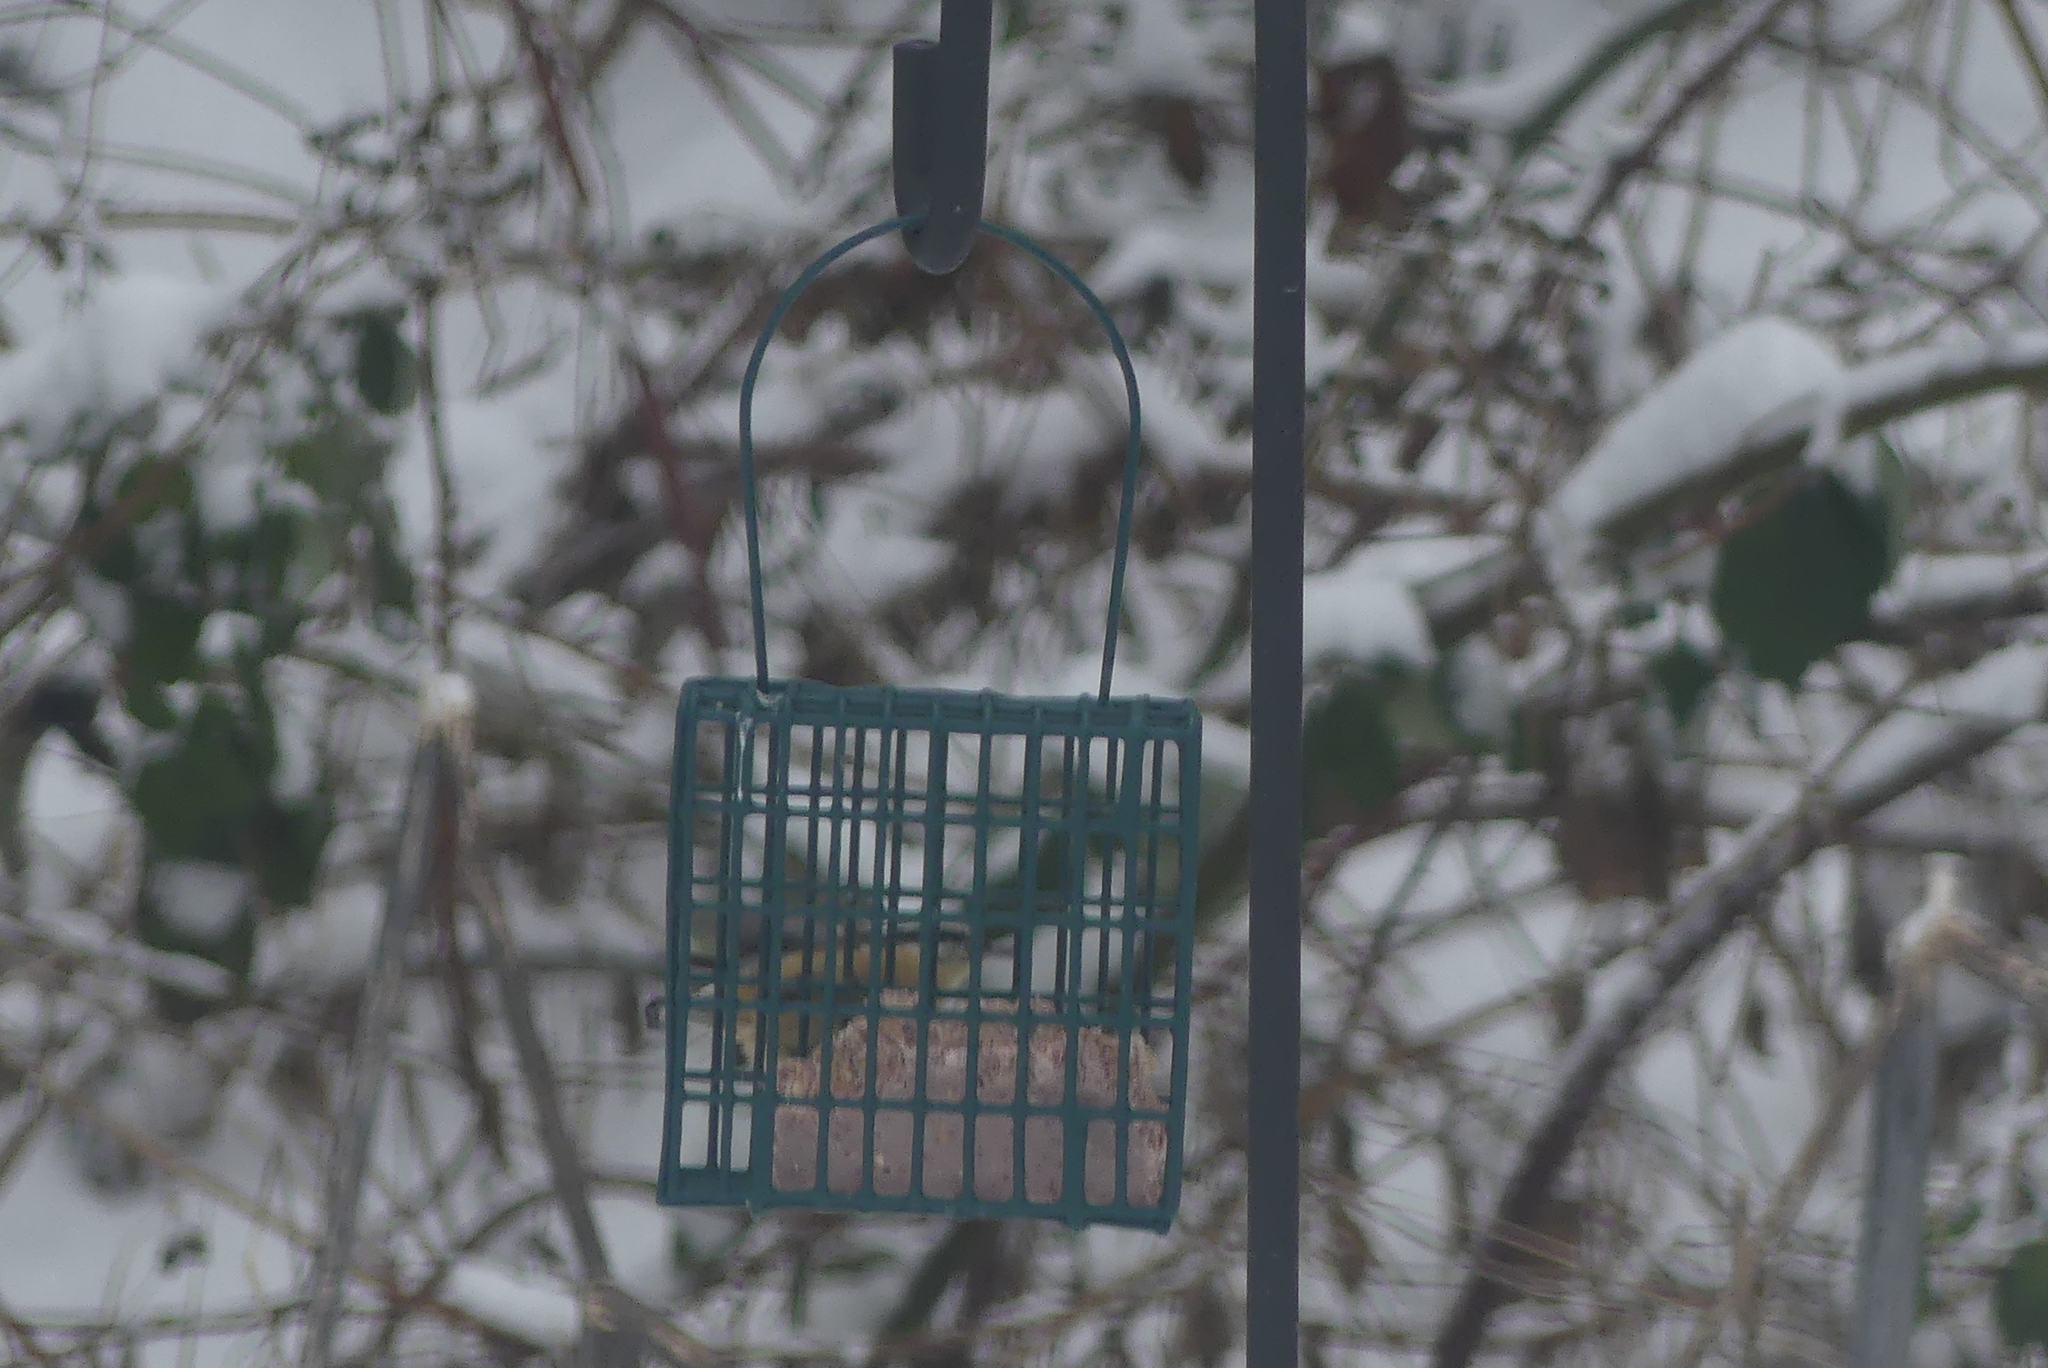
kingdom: Animalia
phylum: Chordata
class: Aves
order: Passeriformes
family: Sittidae
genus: Sitta
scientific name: Sitta canadensis
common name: Red-breasted nuthatch
